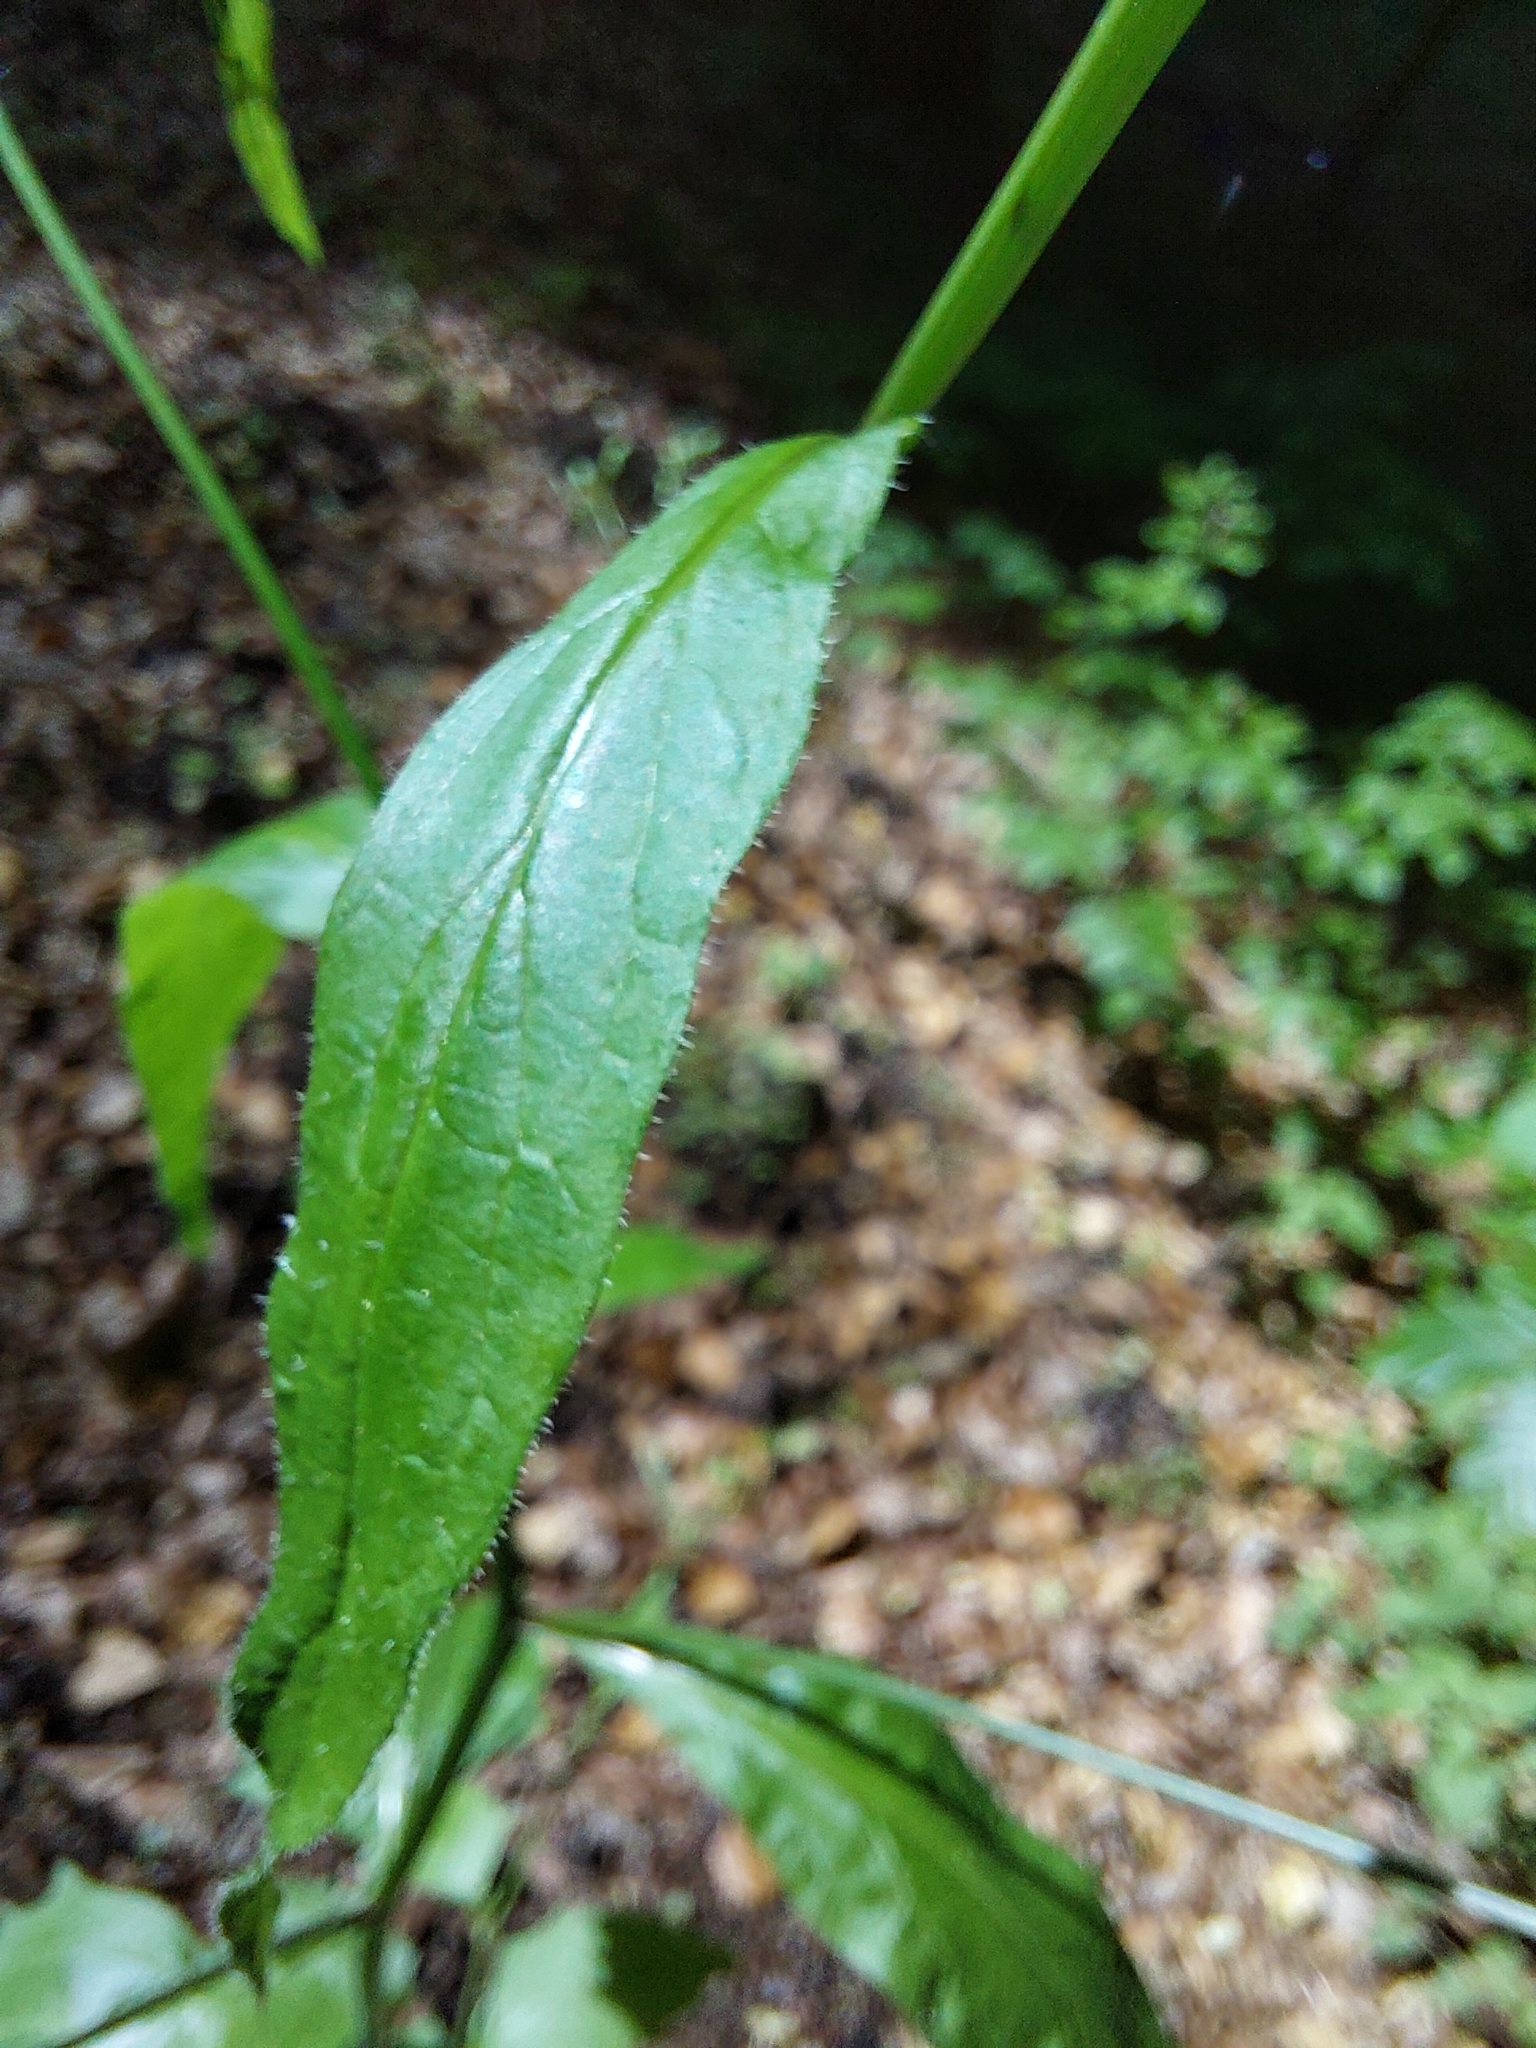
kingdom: Plantae
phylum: Tracheophyta
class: Magnoliopsida
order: Asterales
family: Asteraceae
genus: Lapsana
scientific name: Lapsana communis
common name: Nipplewort
